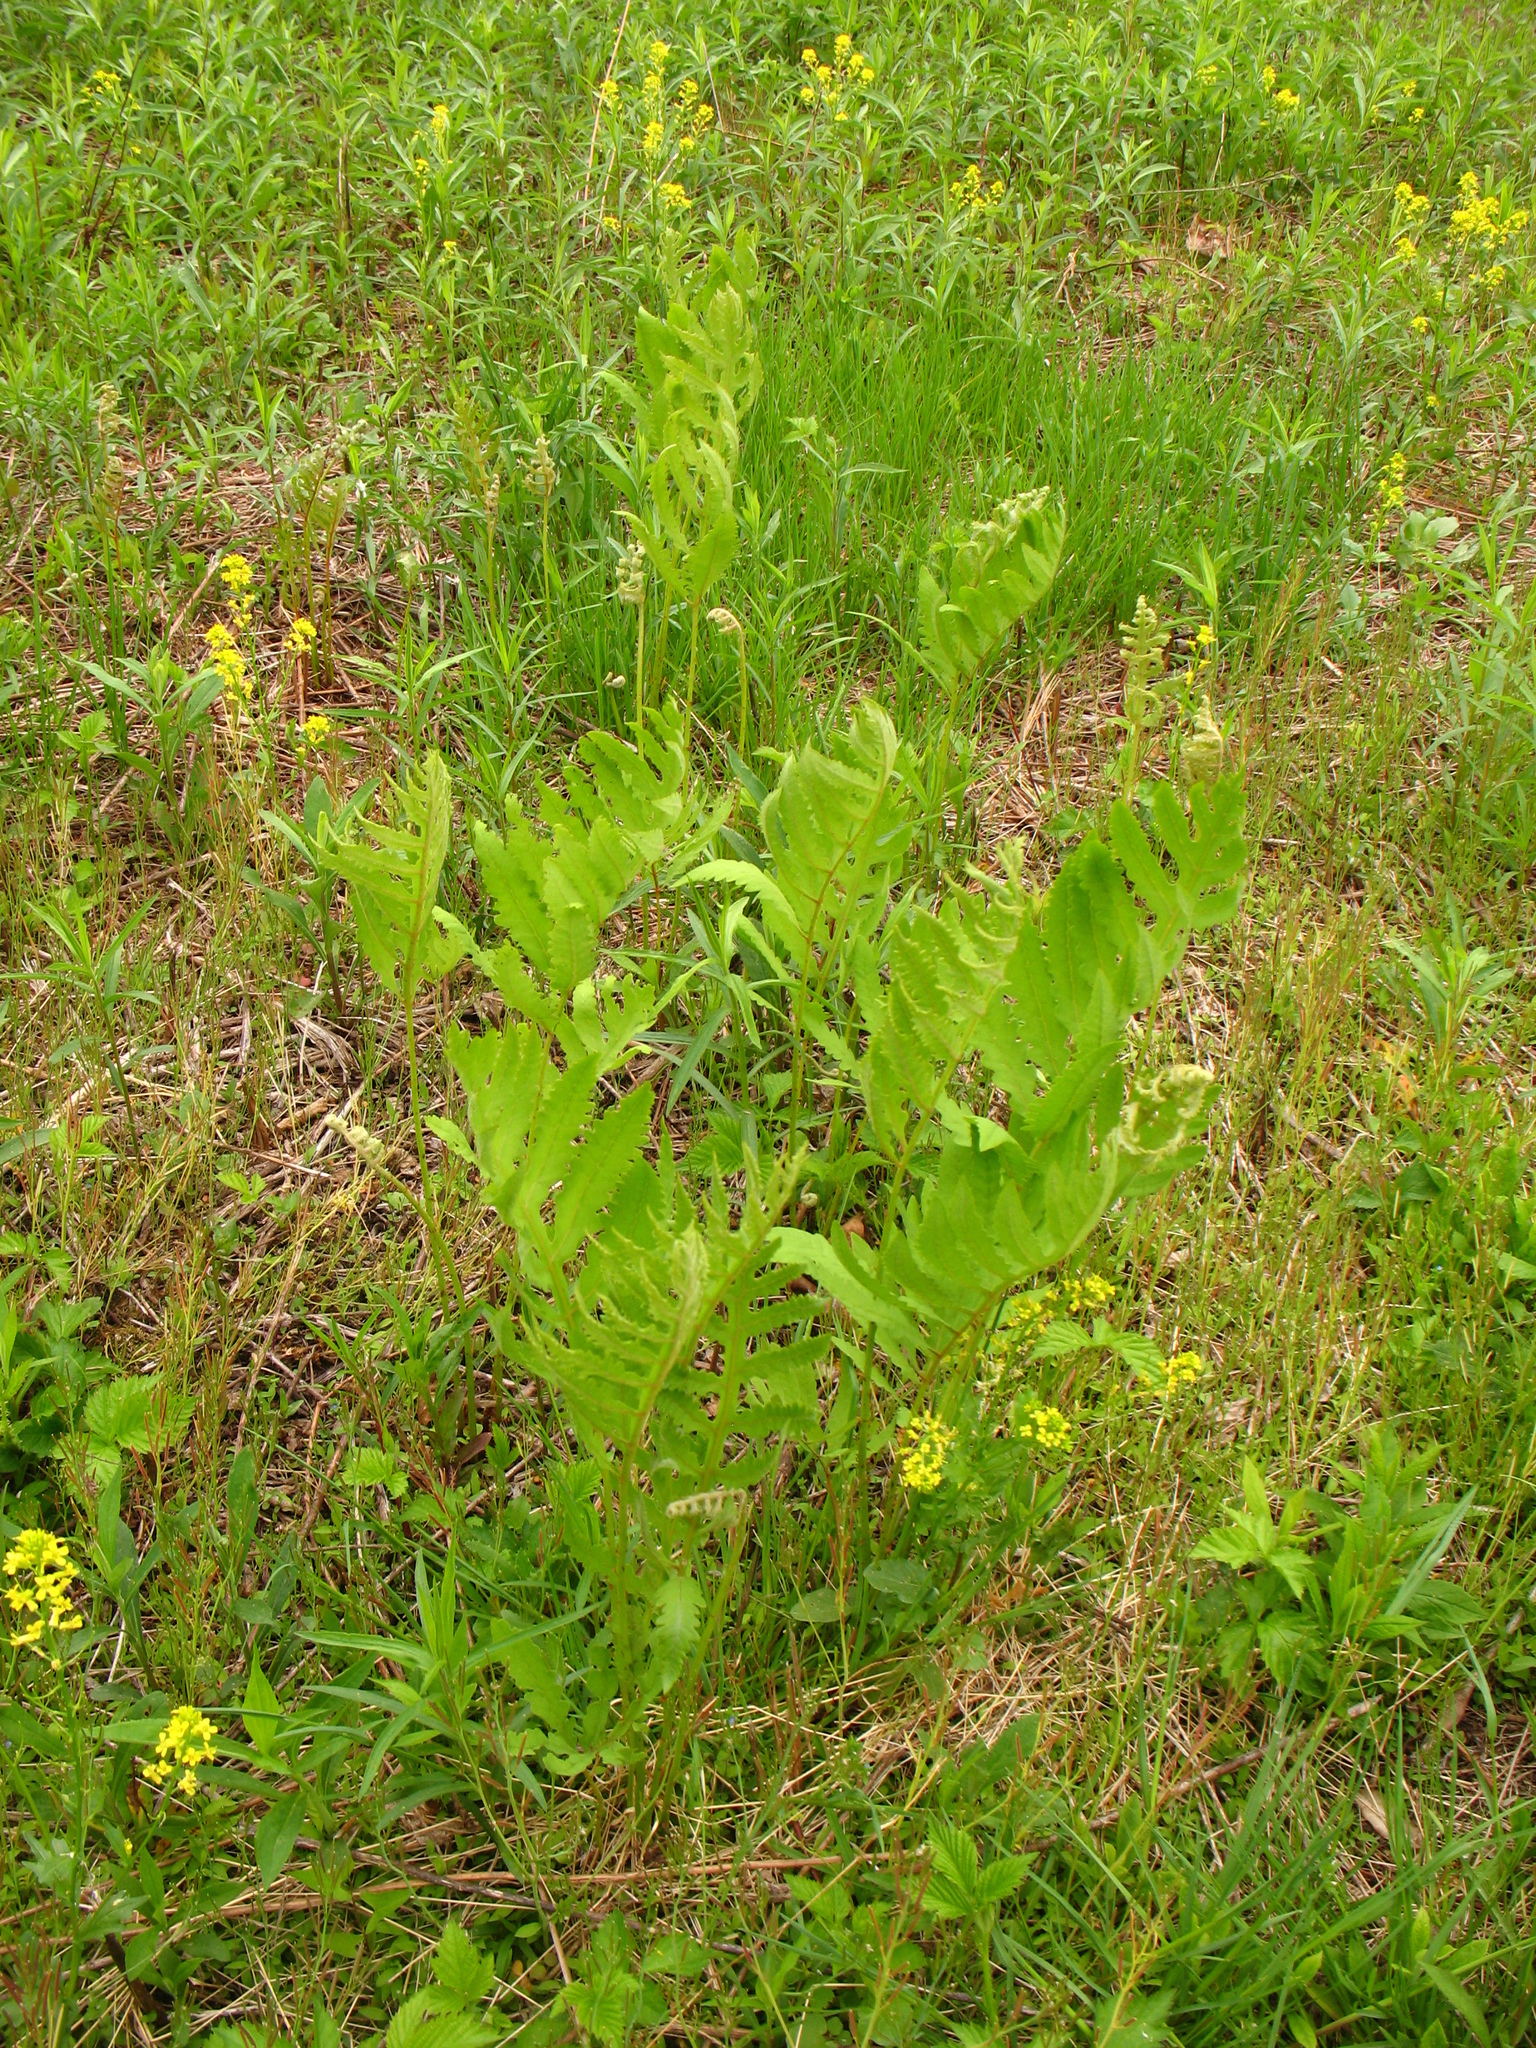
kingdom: Plantae
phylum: Tracheophyta
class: Polypodiopsida
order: Polypodiales
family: Onocleaceae
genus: Onoclea
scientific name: Onoclea sensibilis
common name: Sensitive fern
